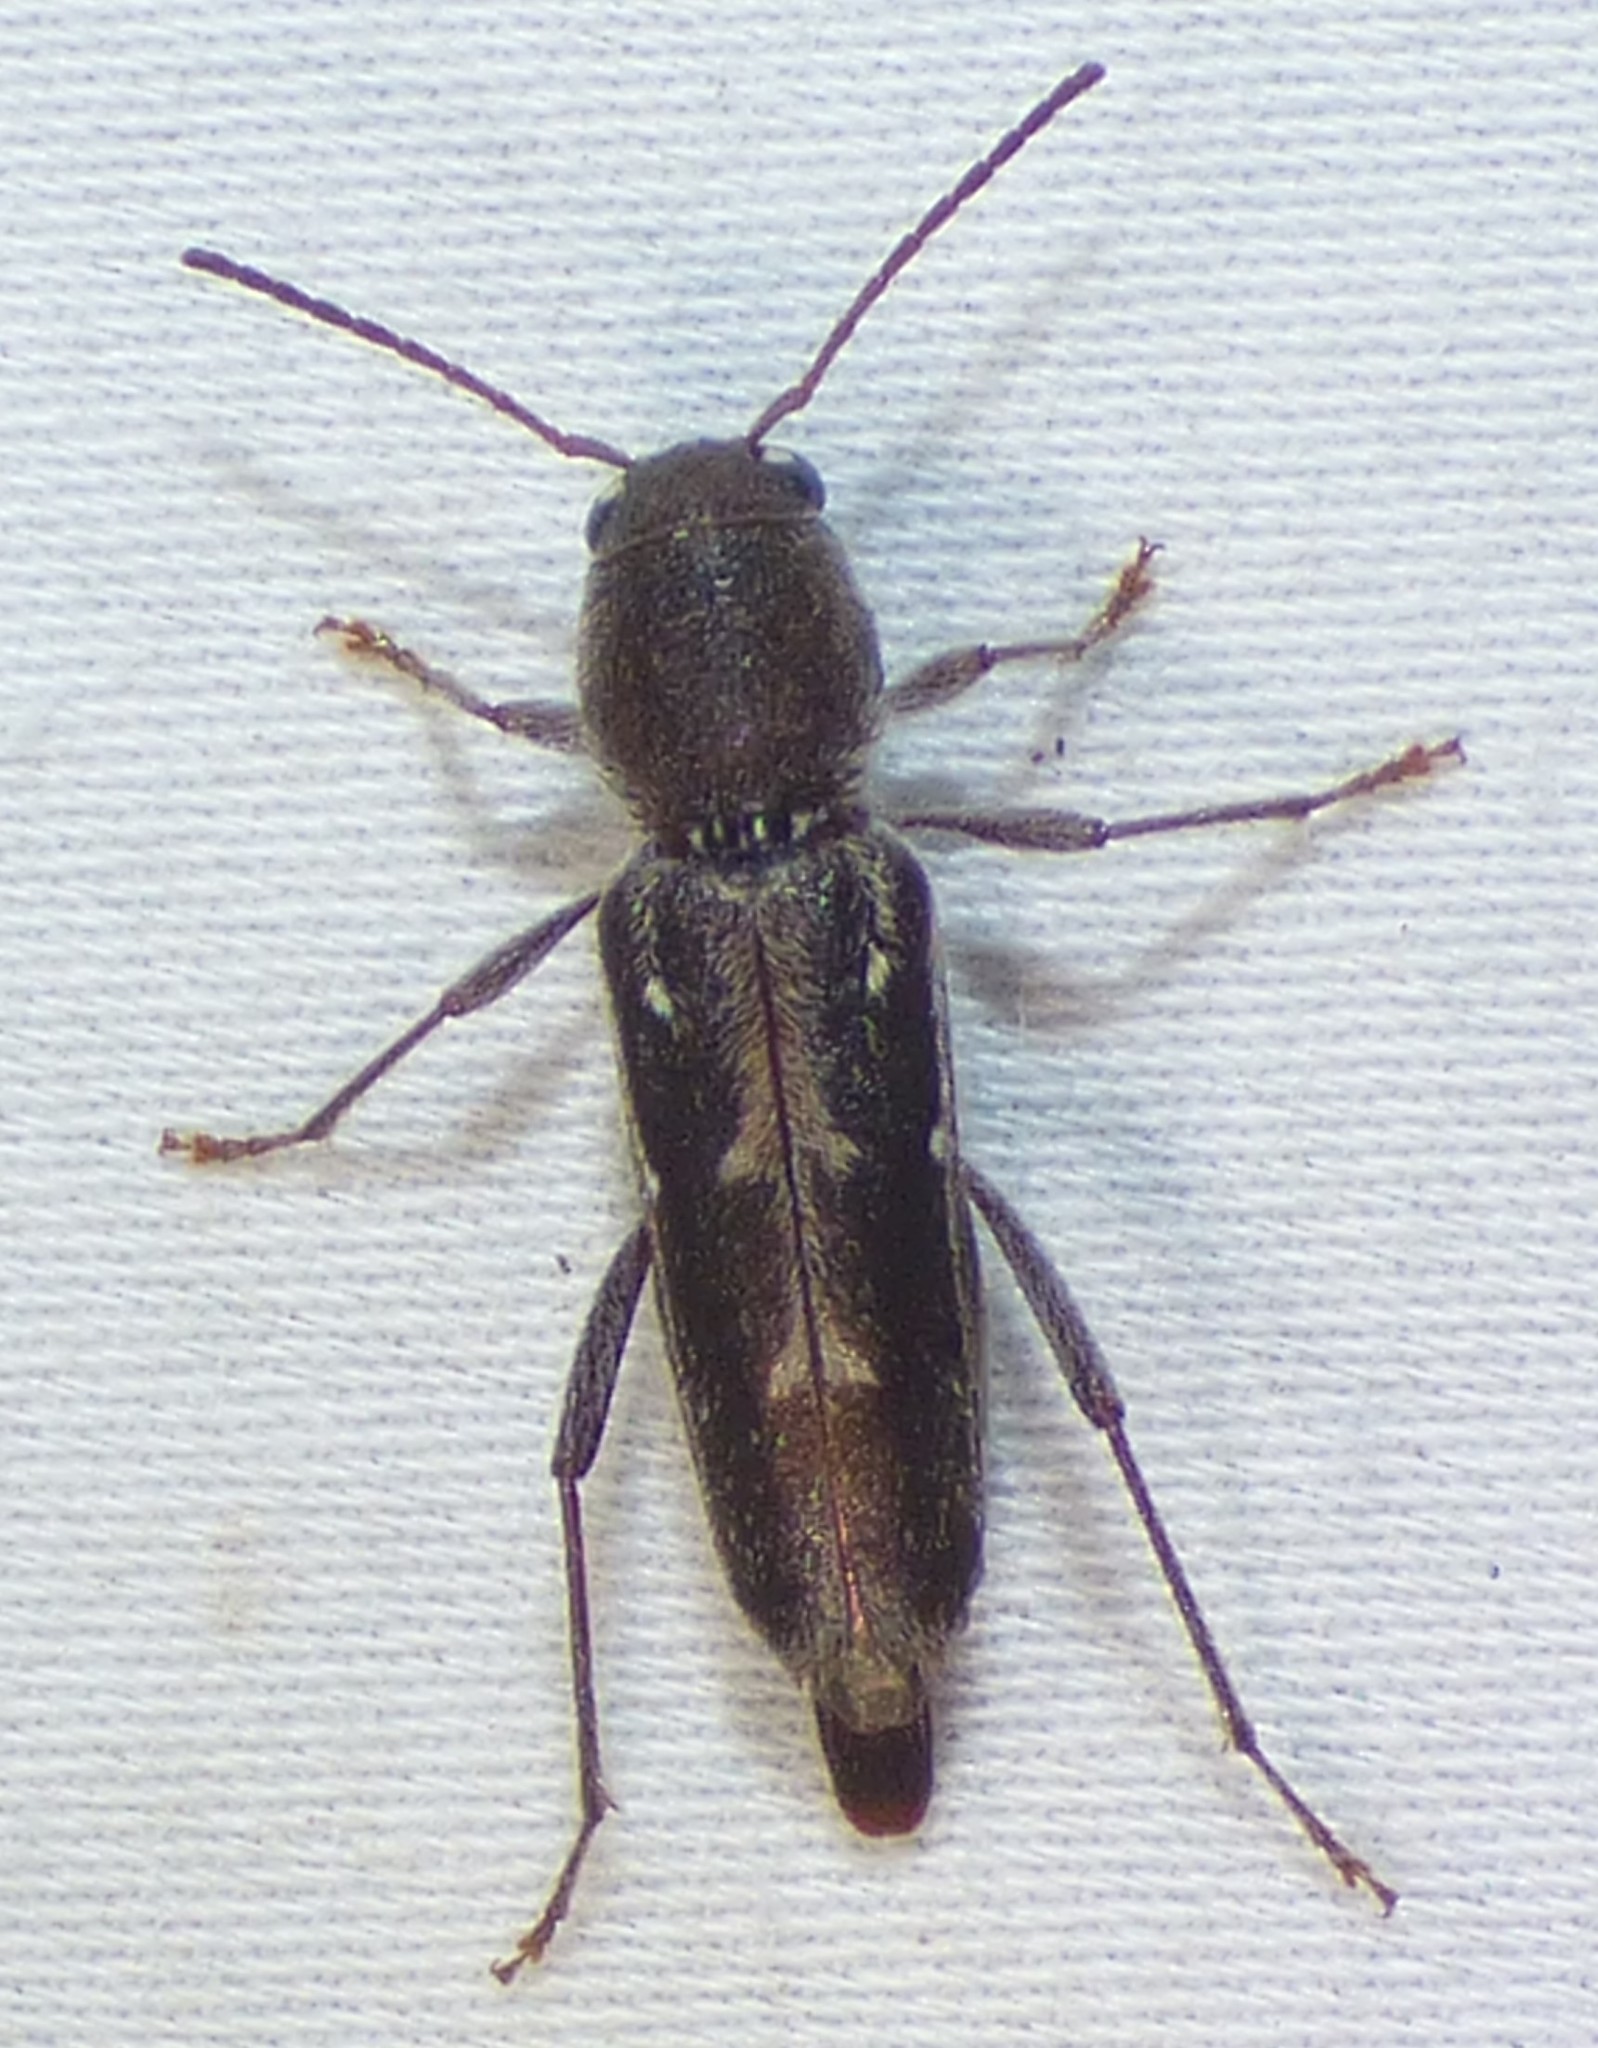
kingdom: Animalia
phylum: Arthropoda
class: Insecta
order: Coleoptera
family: Cerambycidae
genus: Xylotrechus
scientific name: Xylotrechus sagittatus
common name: Arrowhead borer
